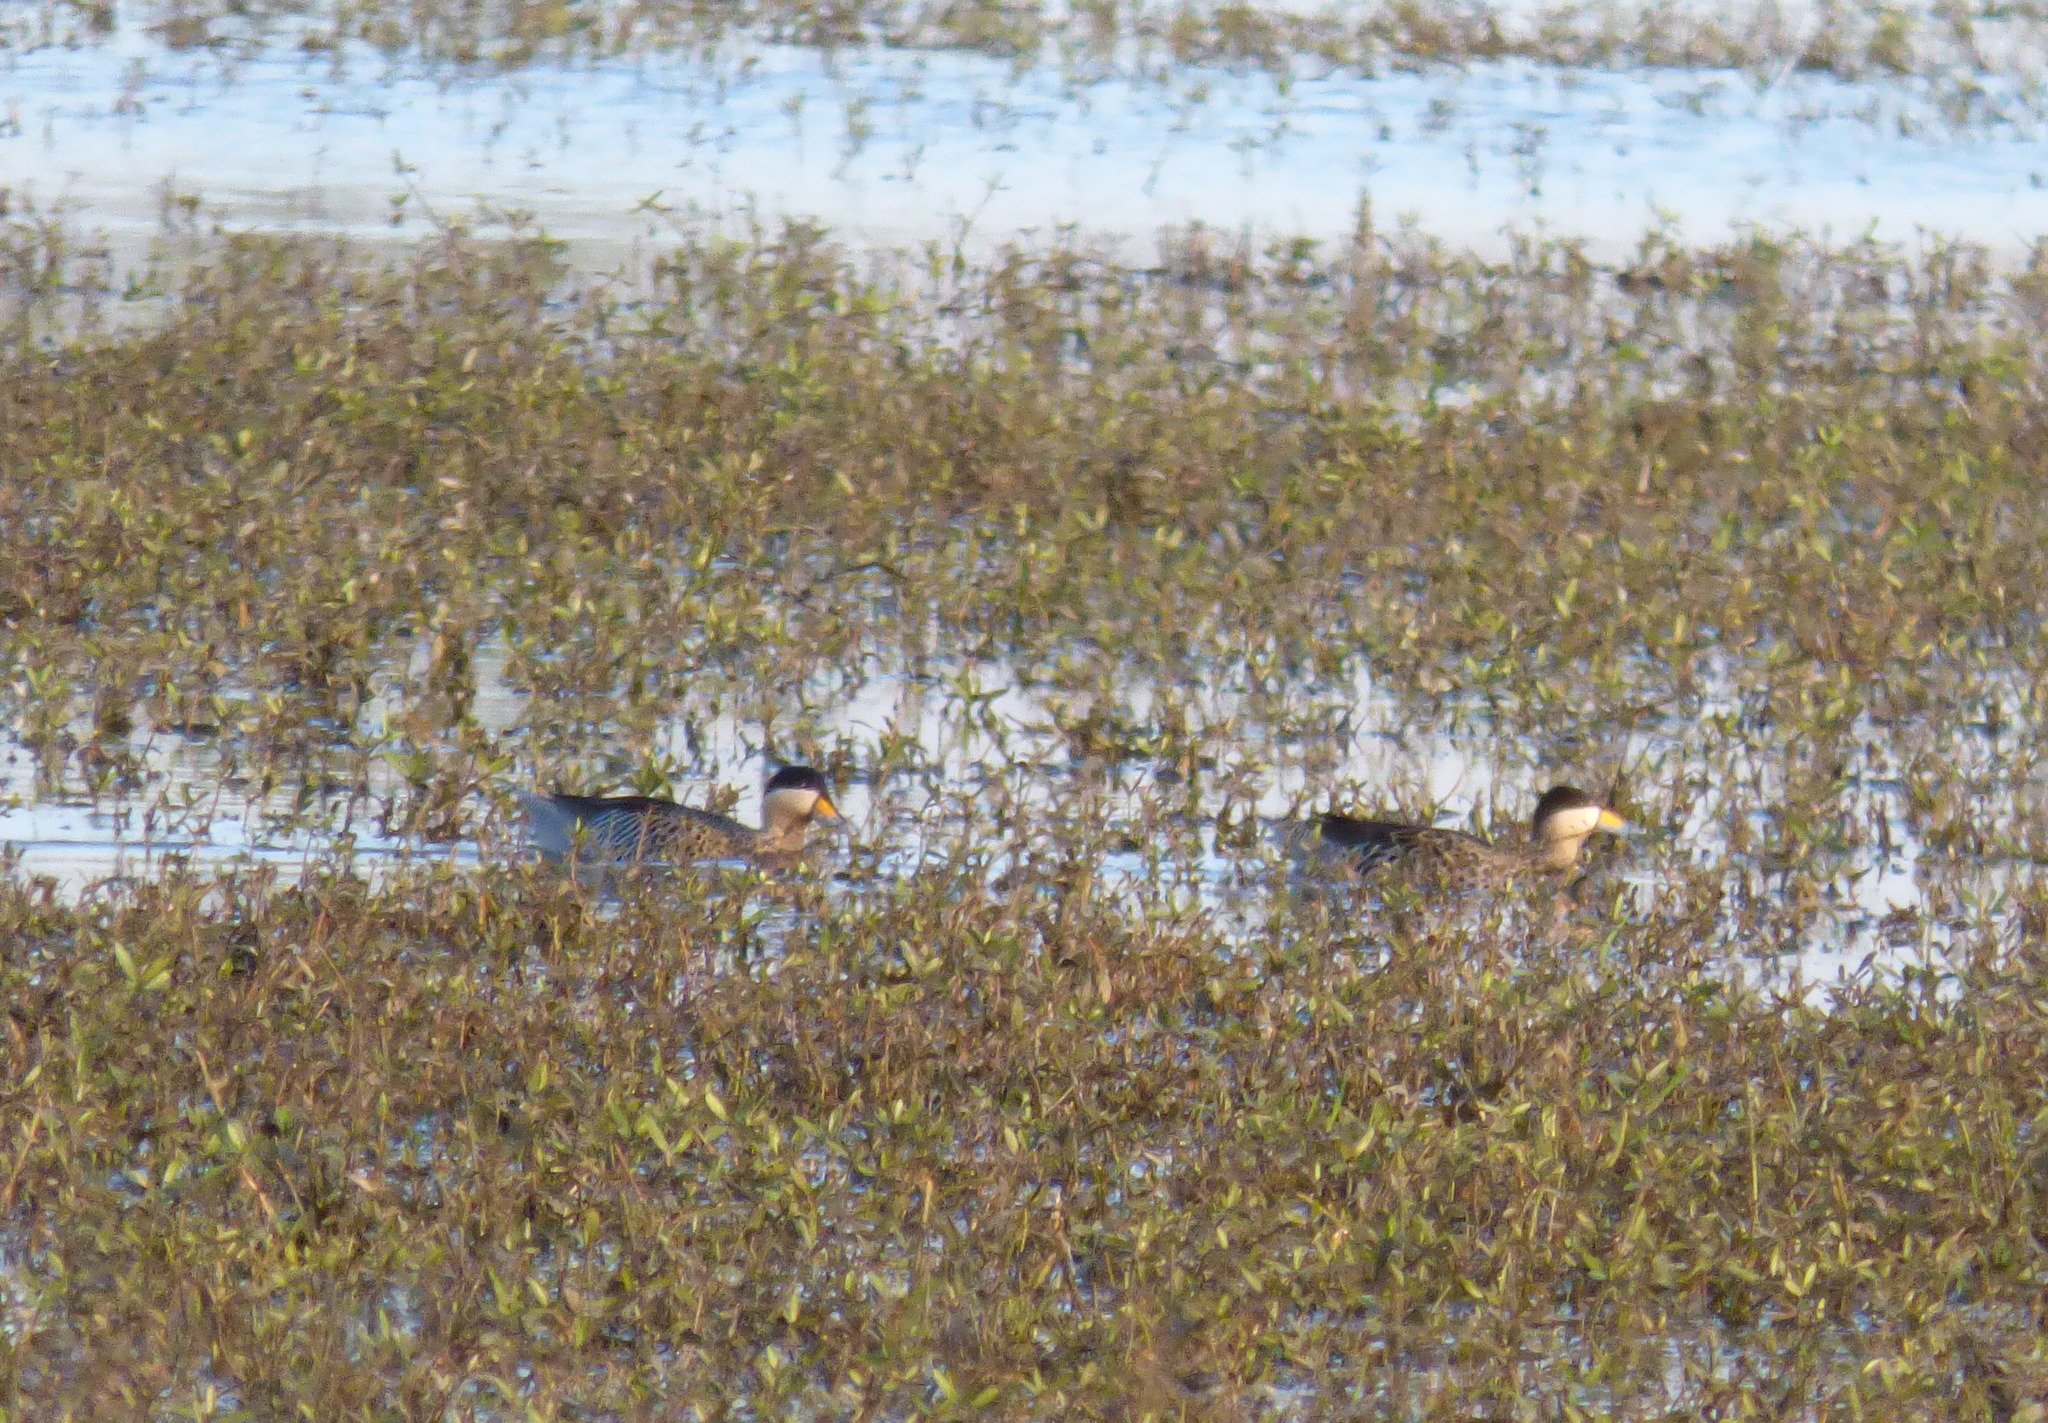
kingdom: Animalia
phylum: Chordata
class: Aves
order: Anseriformes
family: Anatidae
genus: Spatula
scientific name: Spatula versicolor
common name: Silver teal
